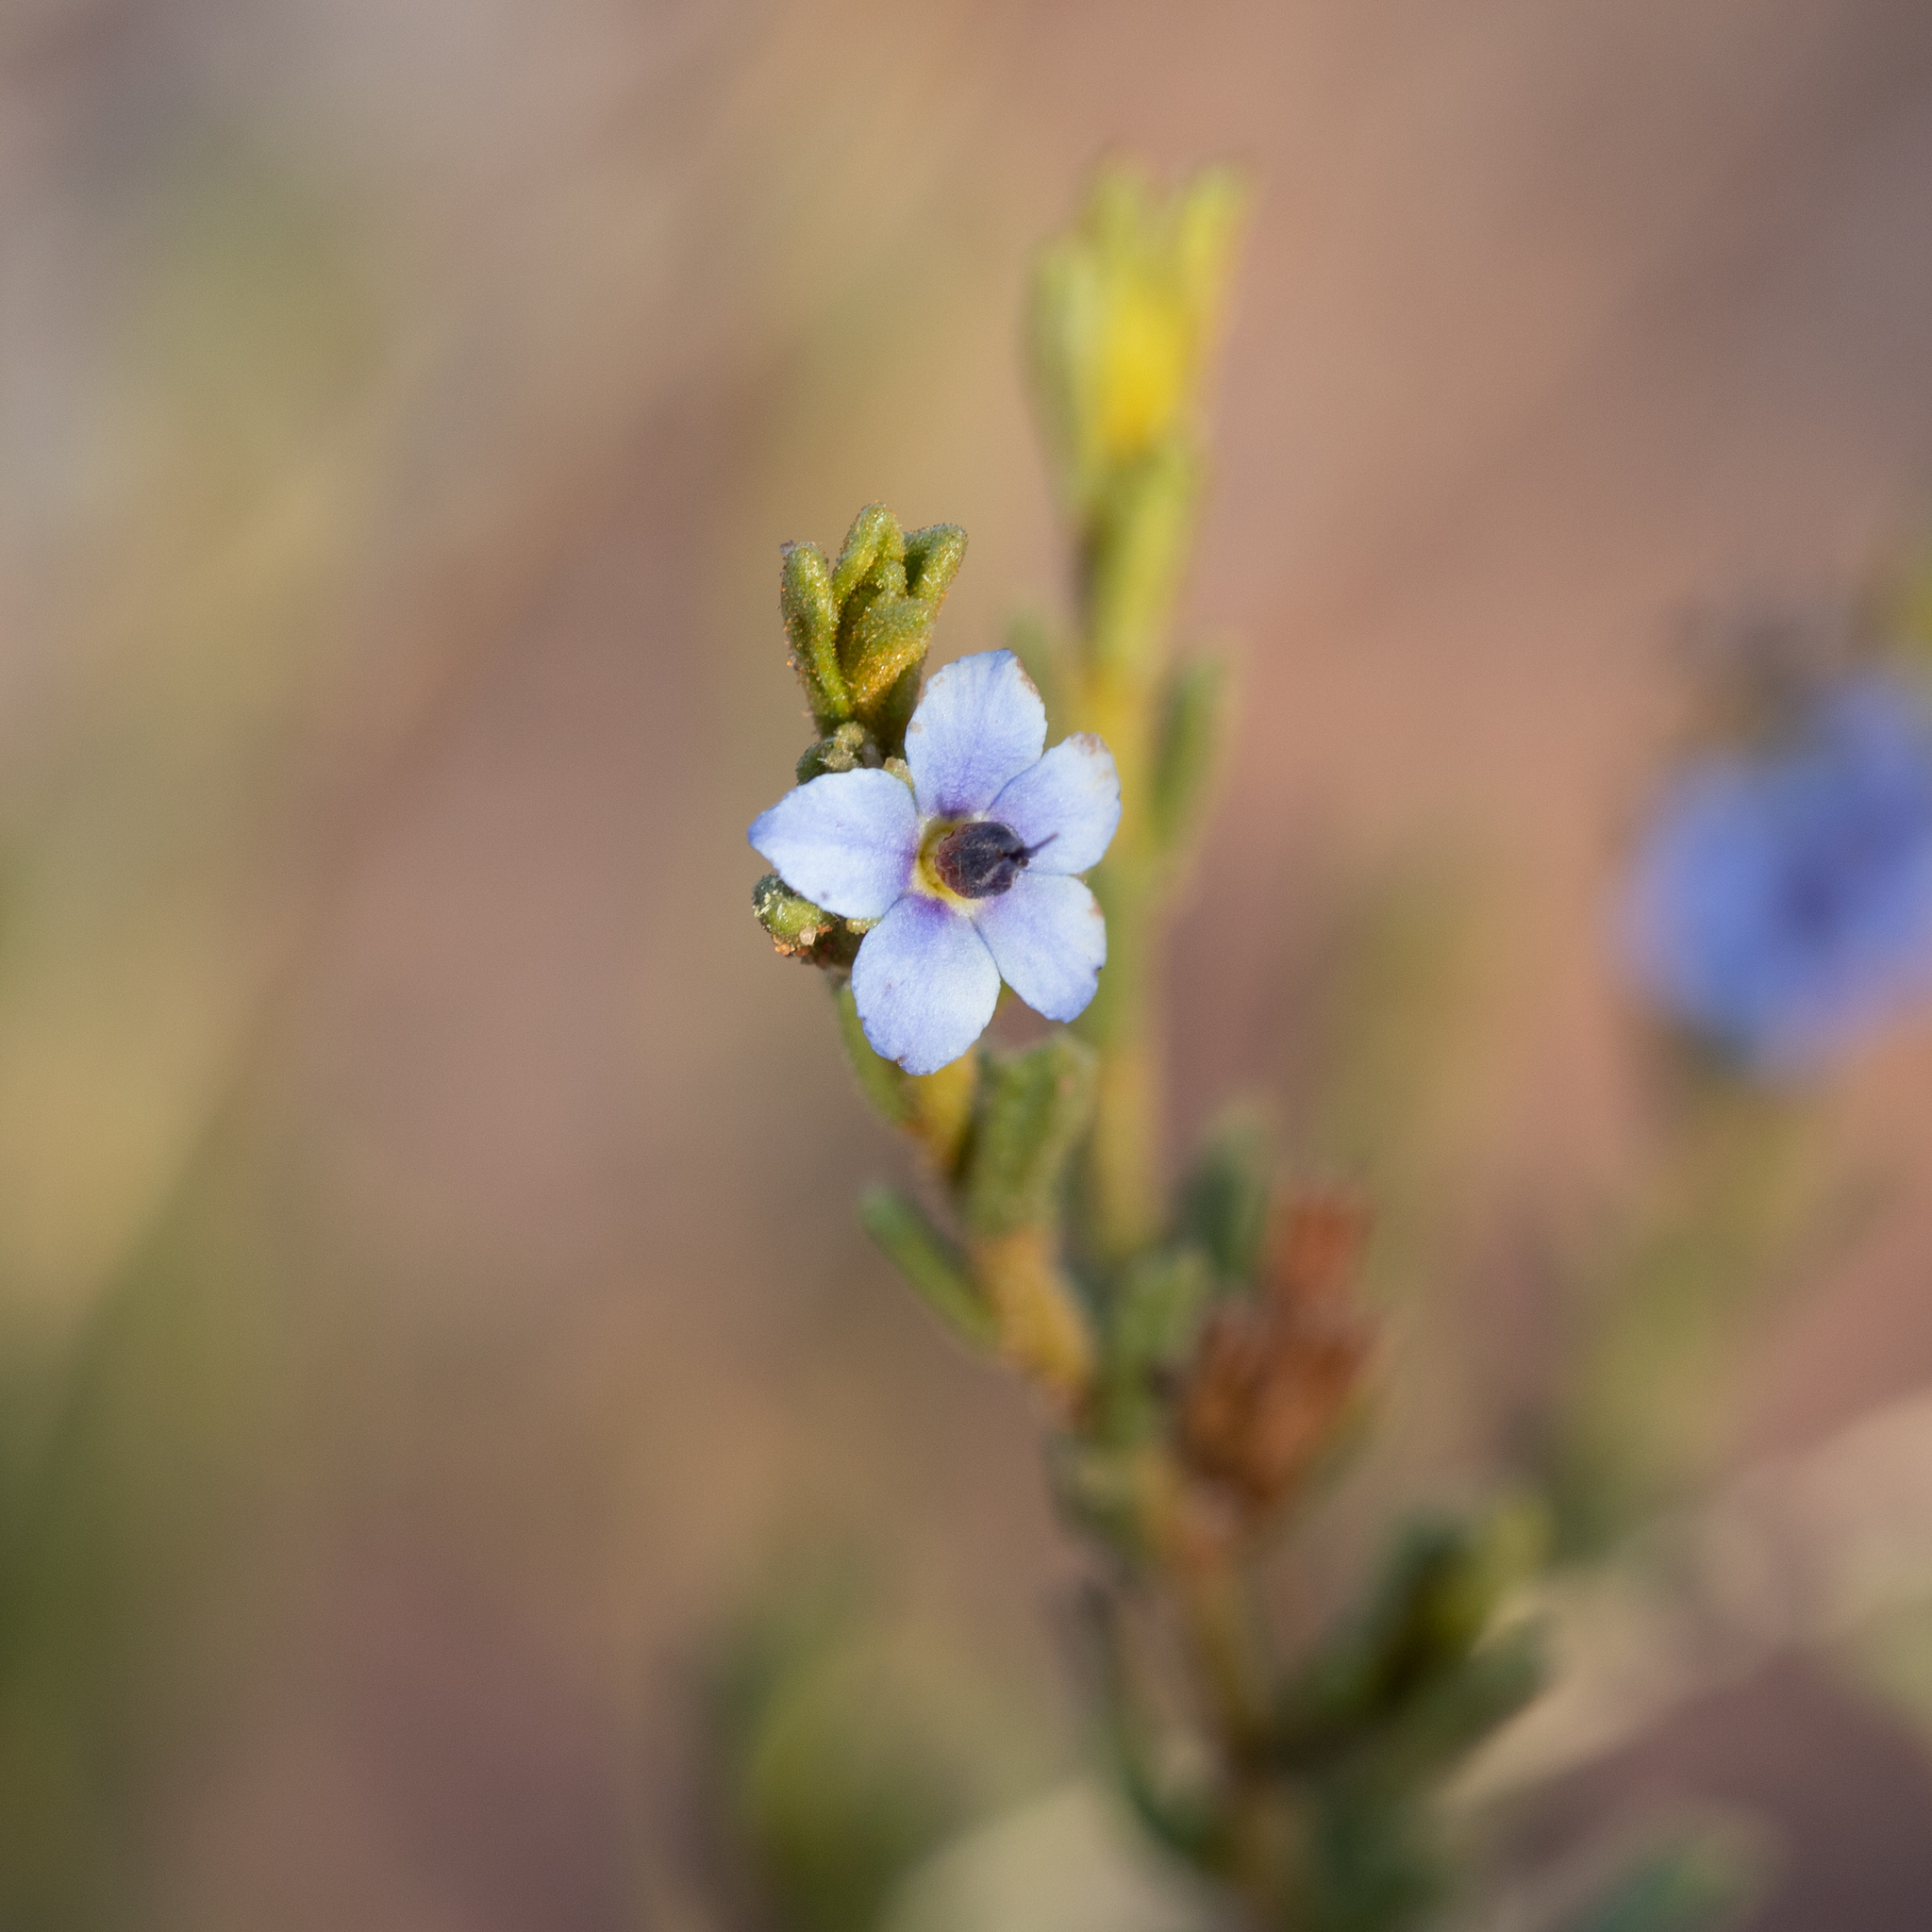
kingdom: Plantae
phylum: Tracheophyta
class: Magnoliopsida
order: Boraginales
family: Ehretiaceae
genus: Halgania
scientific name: Halgania cyanea
